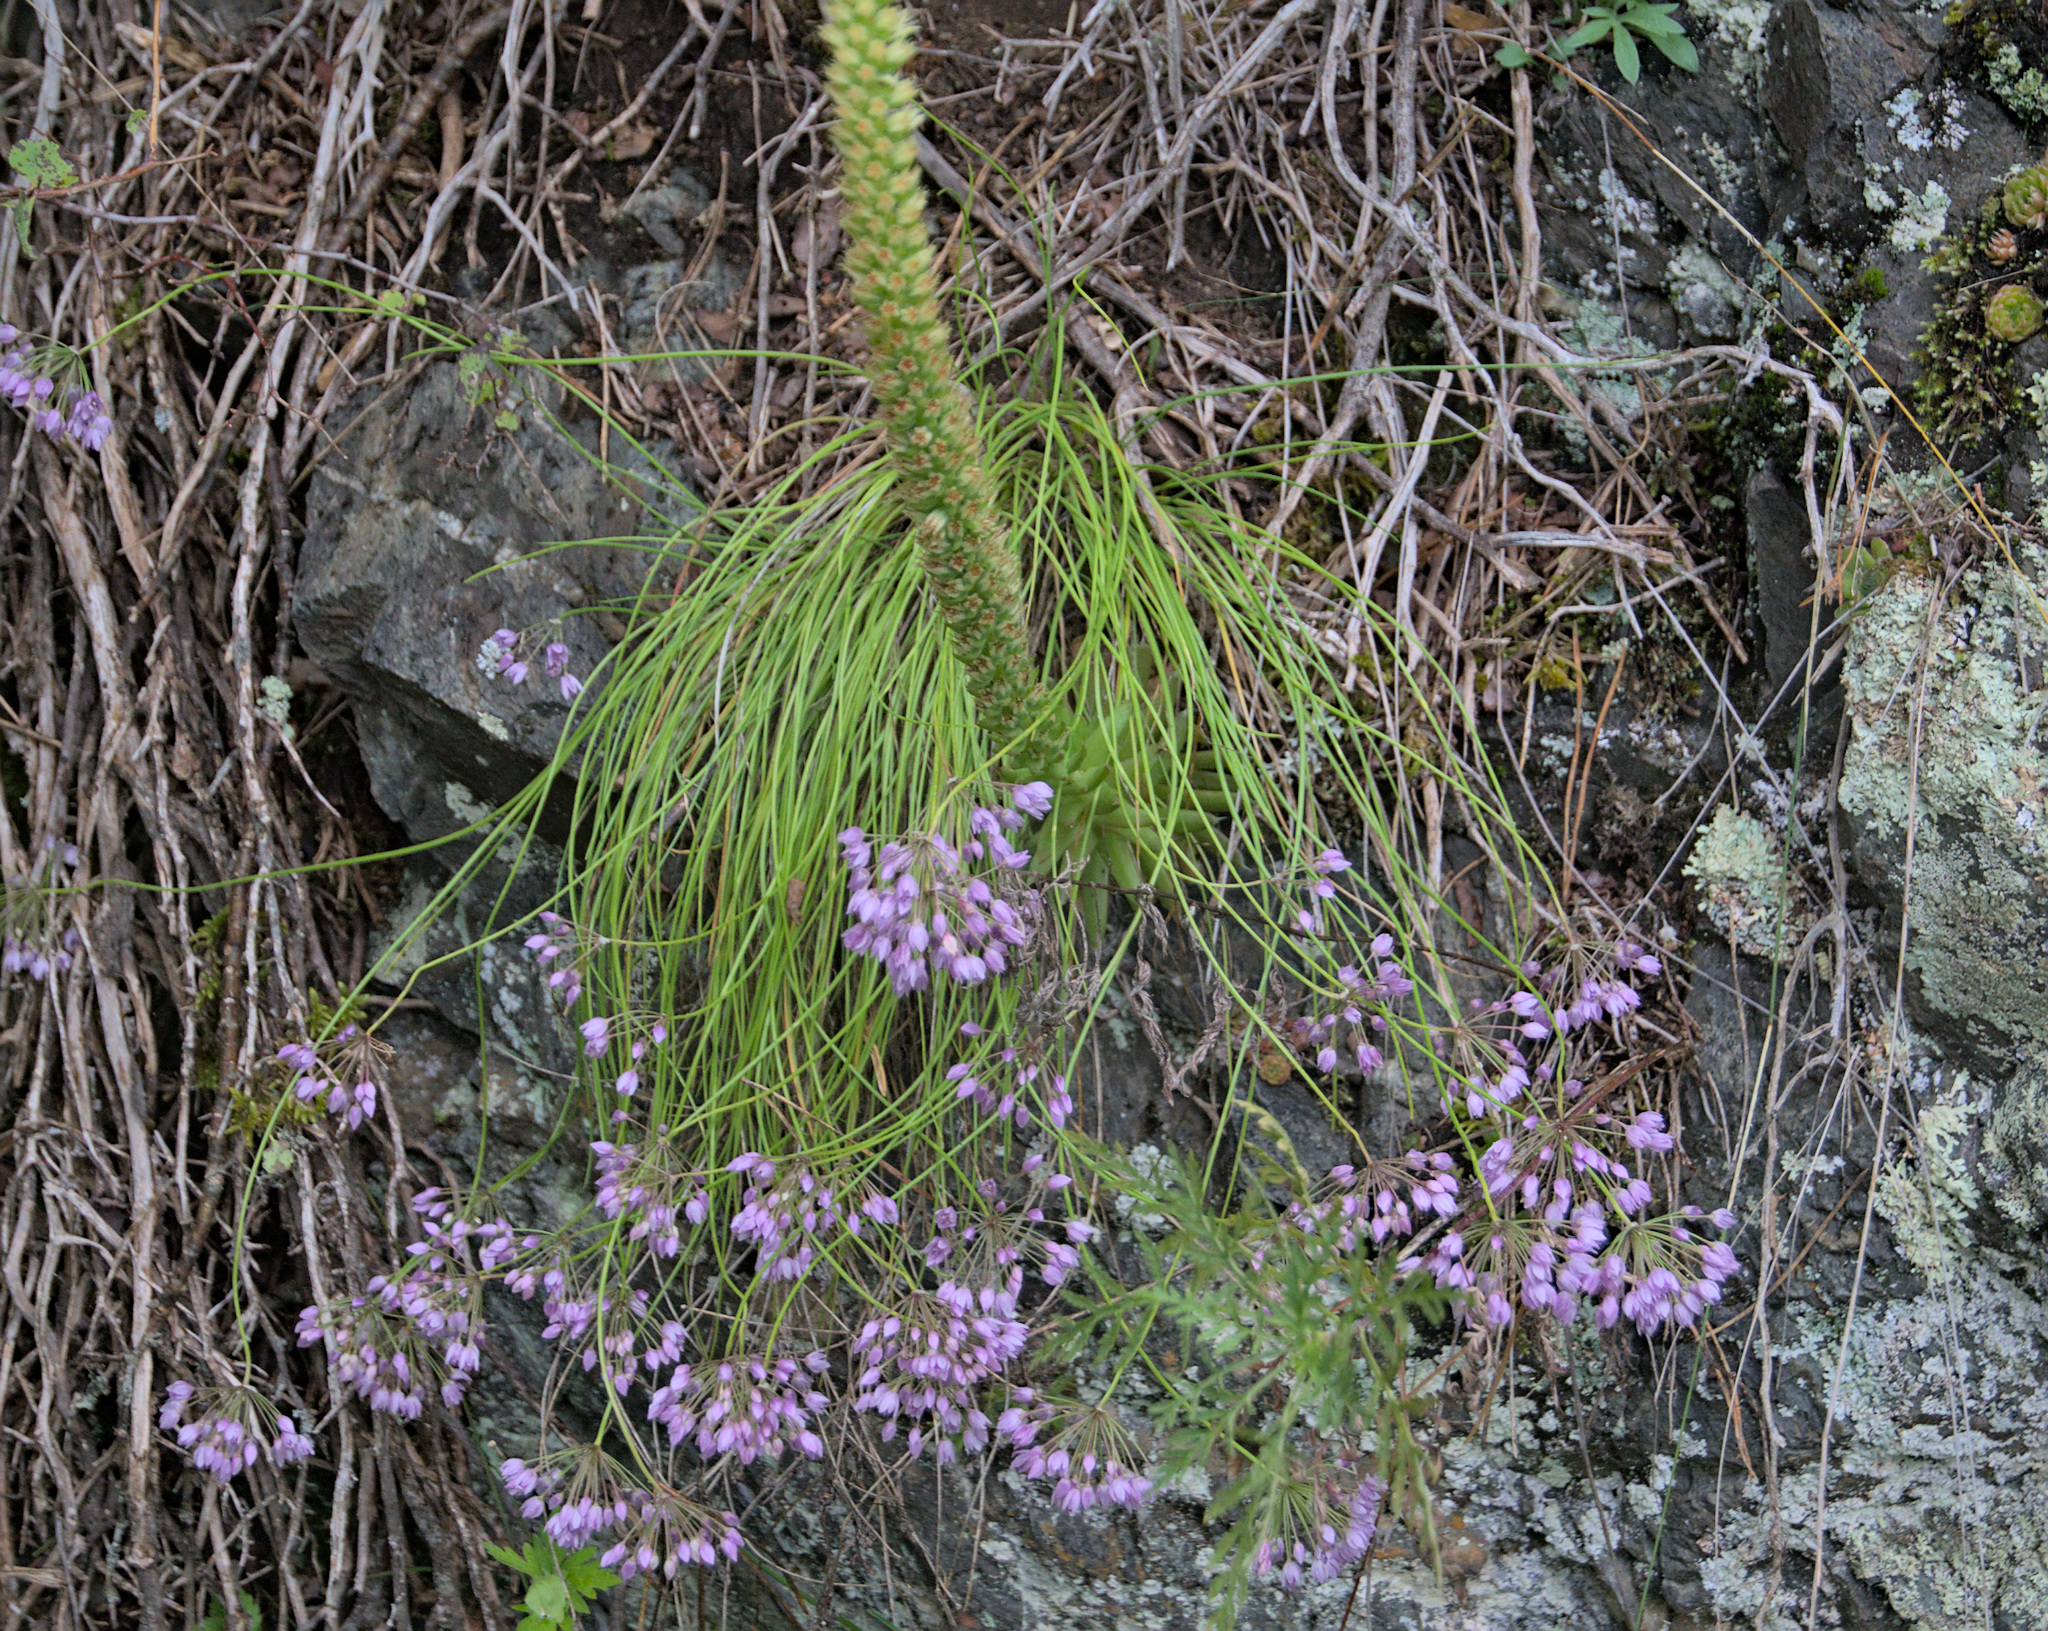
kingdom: Plantae
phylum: Tracheophyta
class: Liliopsida
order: Asparagales
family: Amaryllidaceae
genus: Allium
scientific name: Allium rubens
